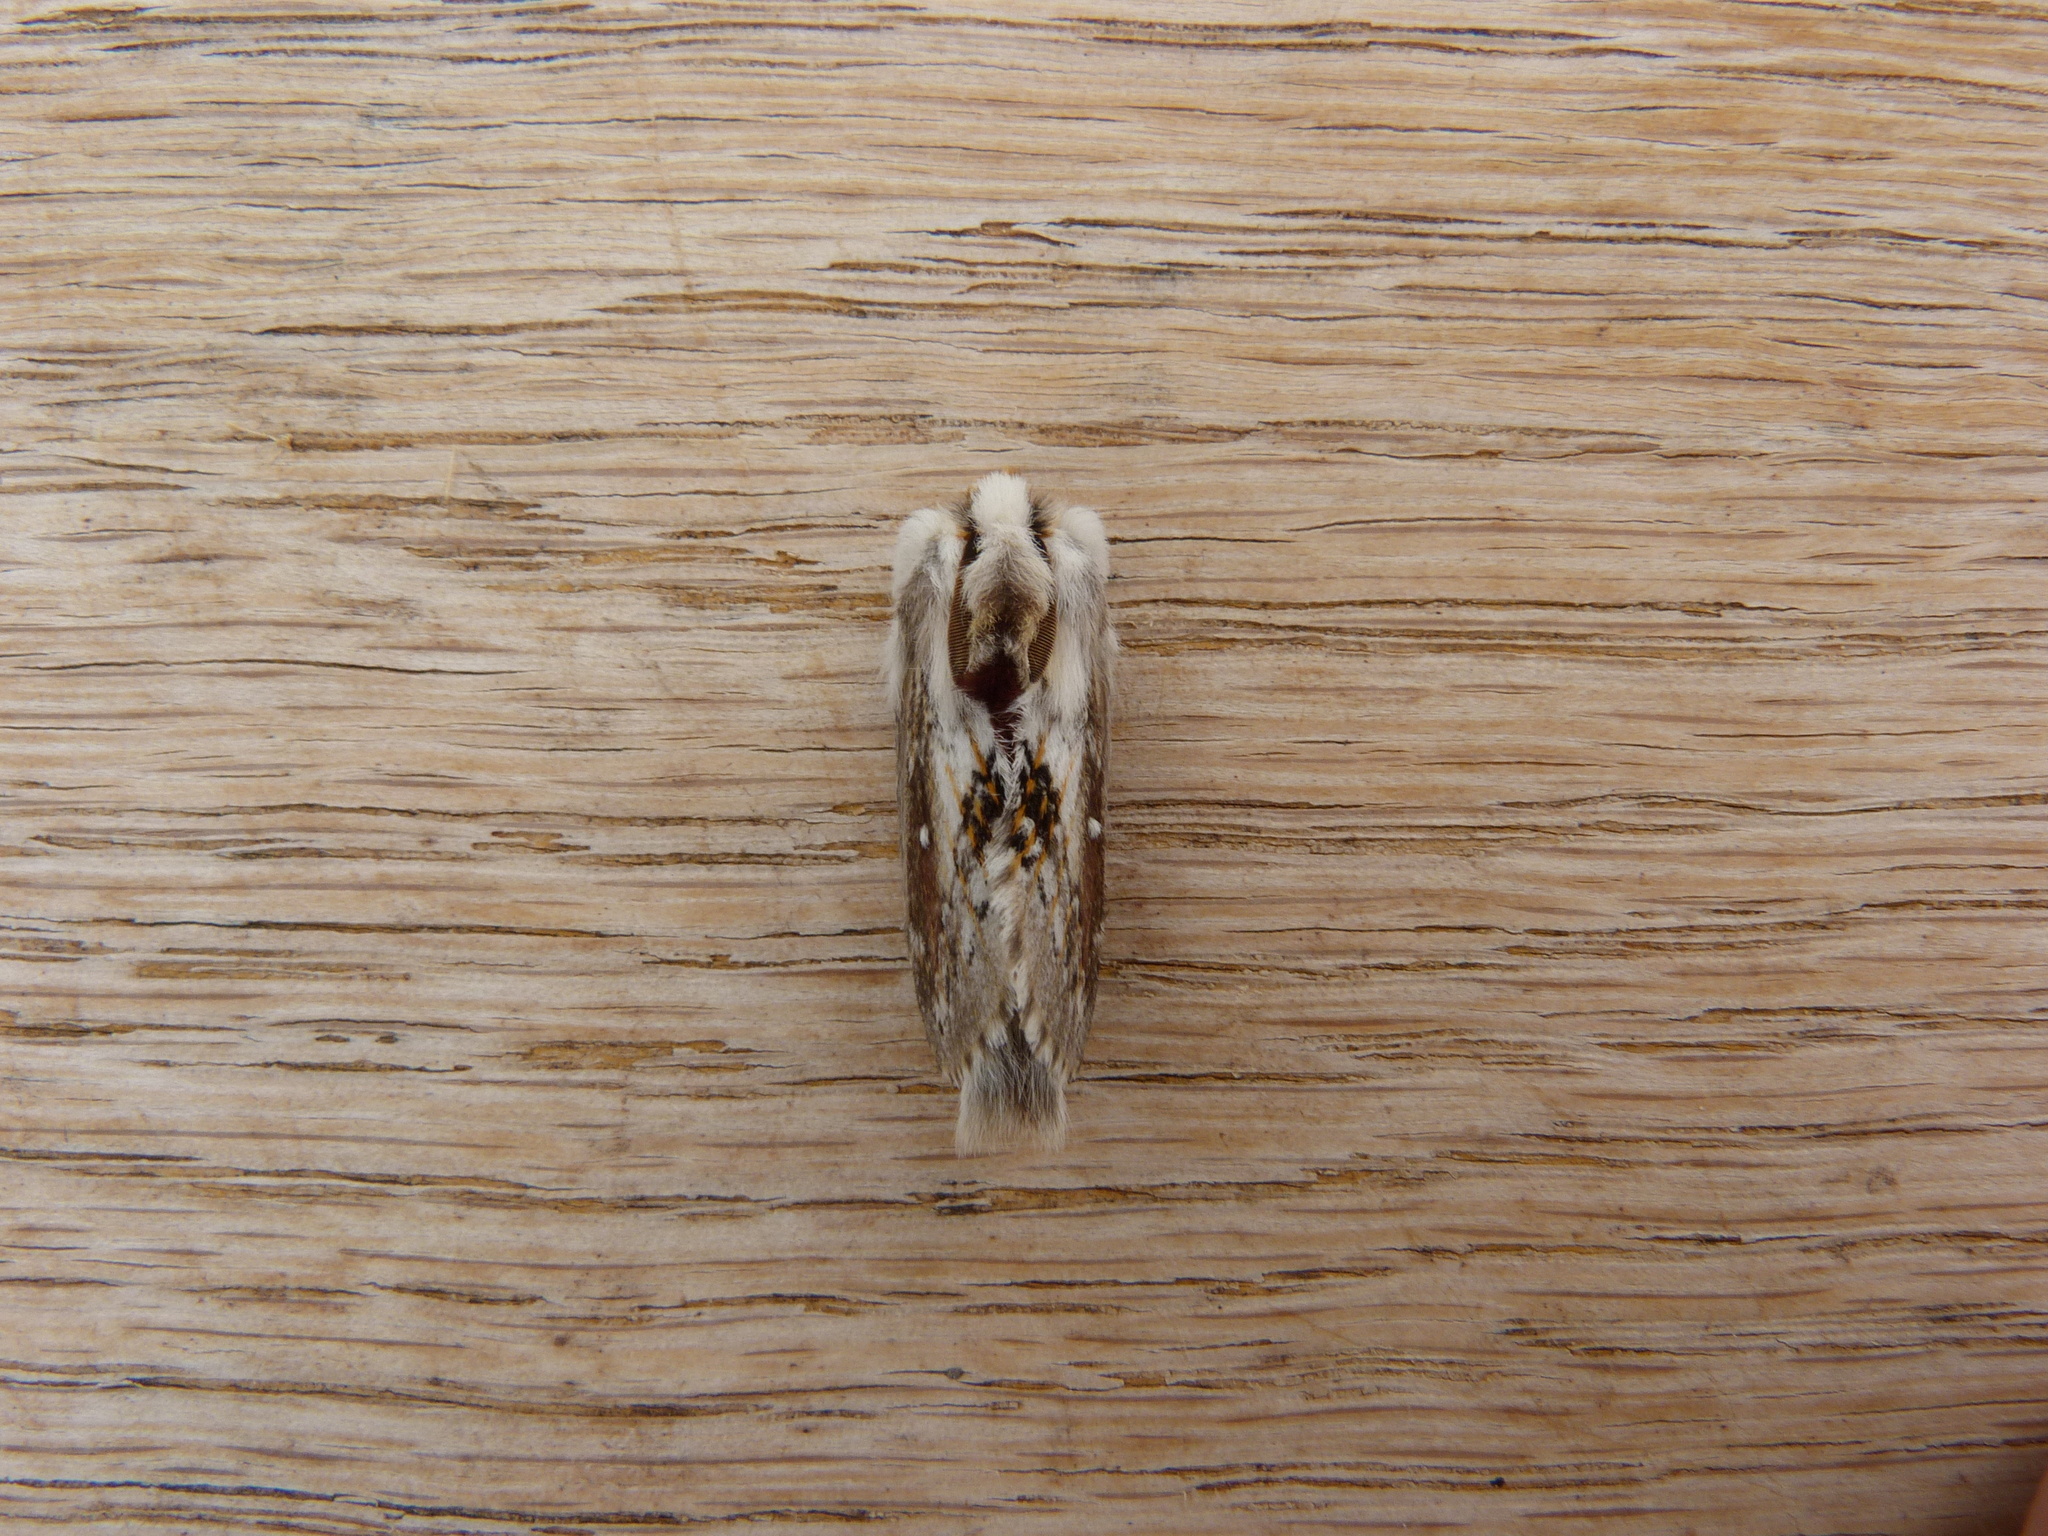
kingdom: Animalia
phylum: Arthropoda
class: Insecta
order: Lepidoptera
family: Lasiocampidae
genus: Porela
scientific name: Porela delineata
